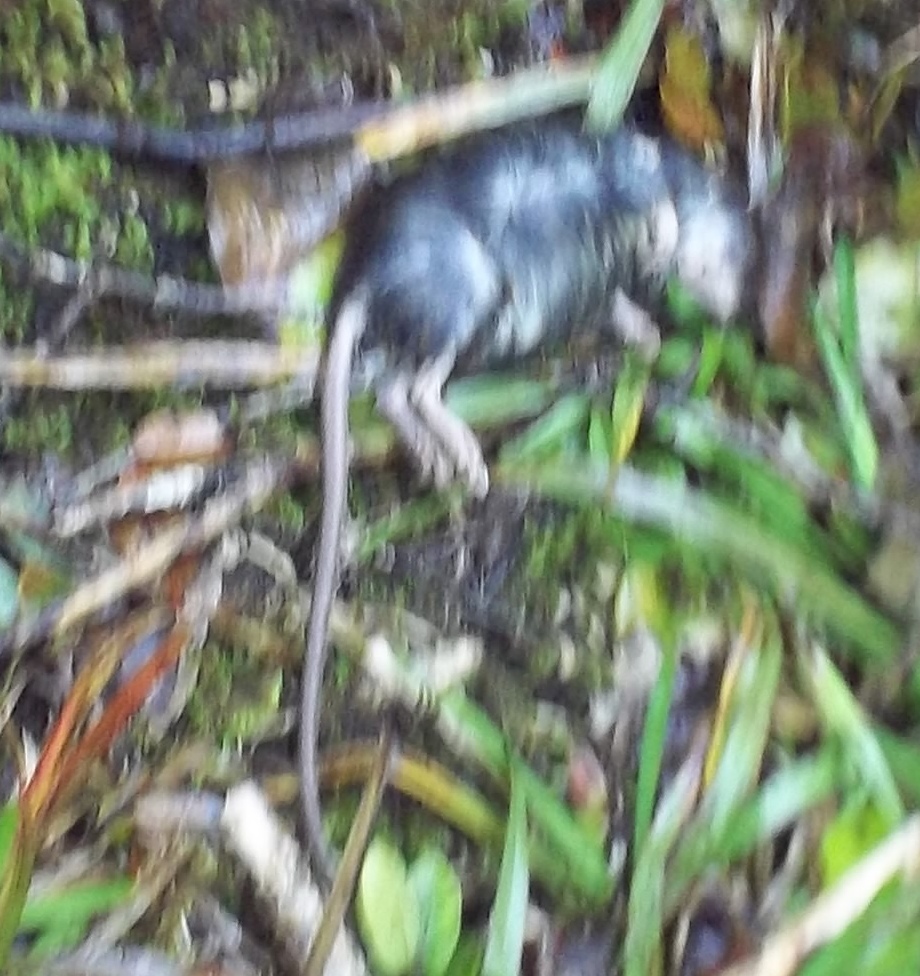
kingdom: Animalia
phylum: Chordata
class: Mammalia
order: Rodentia
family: Muridae
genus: Rattus
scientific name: Rattus rattus
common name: Black rat
